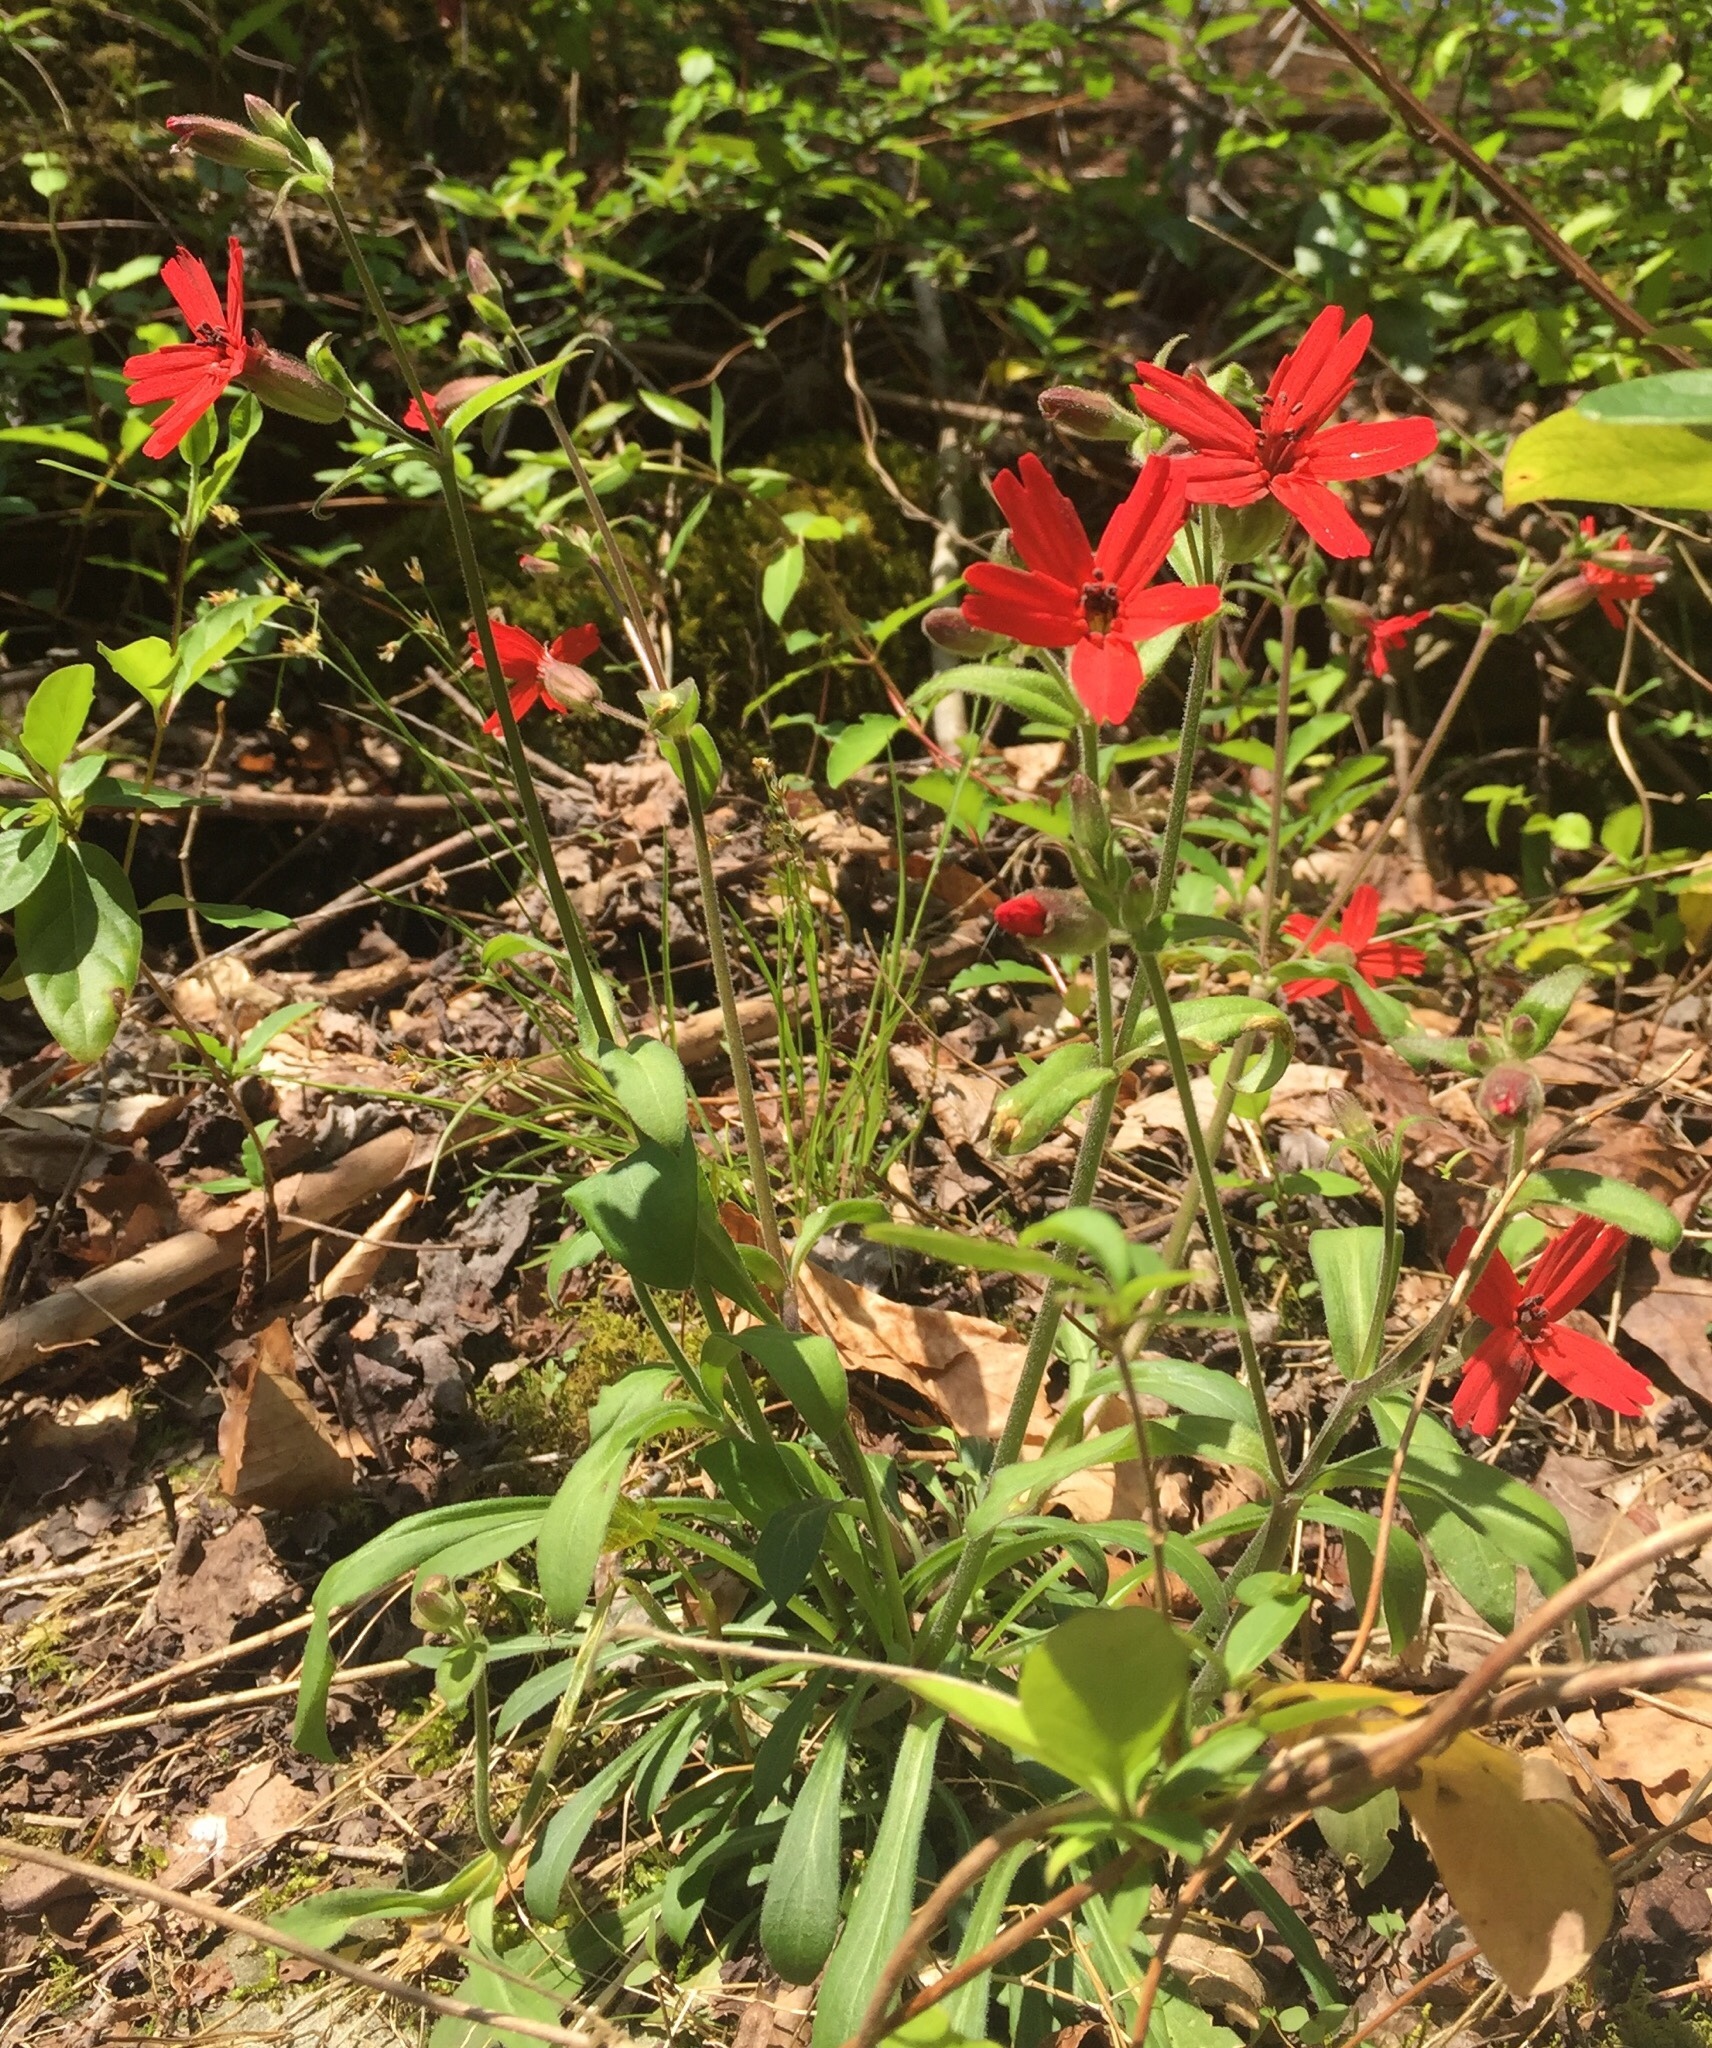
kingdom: Plantae
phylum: Tracheophyta
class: Magnoliopsida
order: Caryophyllales
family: Caryophyllaceae
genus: Silene
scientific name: Silene virginica
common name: Fire-pink
